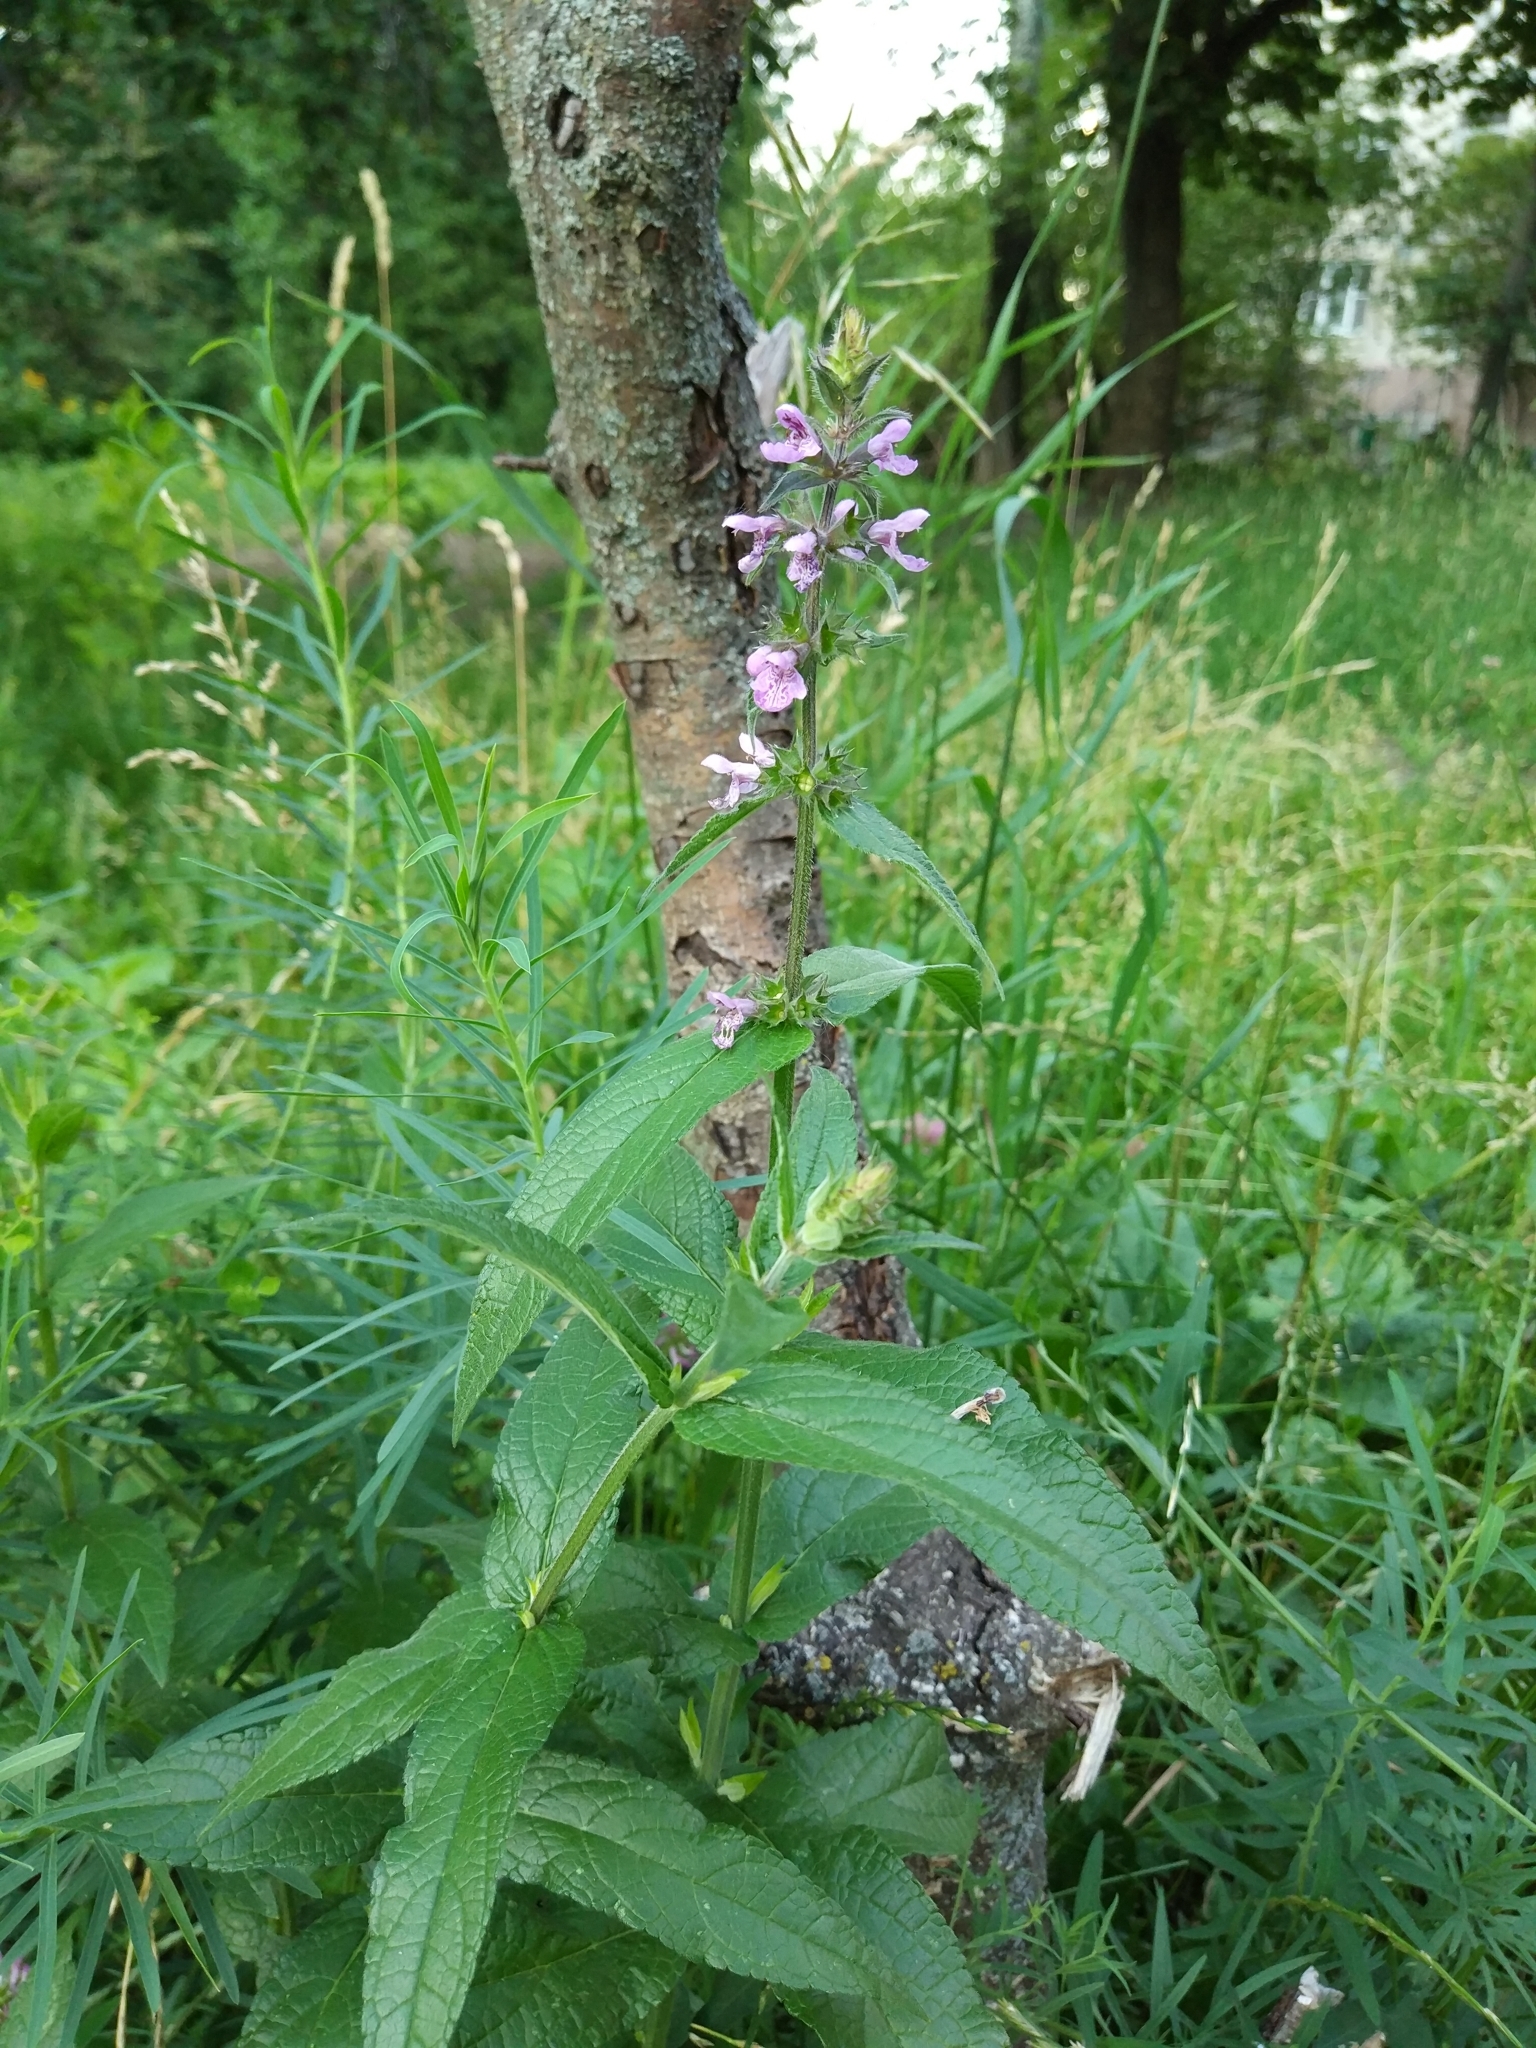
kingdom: Plantae
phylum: Tracheophyta
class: Magnoliopsida
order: Lamiales
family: Lamiaceae
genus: Stachys
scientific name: Stachys palustris
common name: Marsh woundwort
